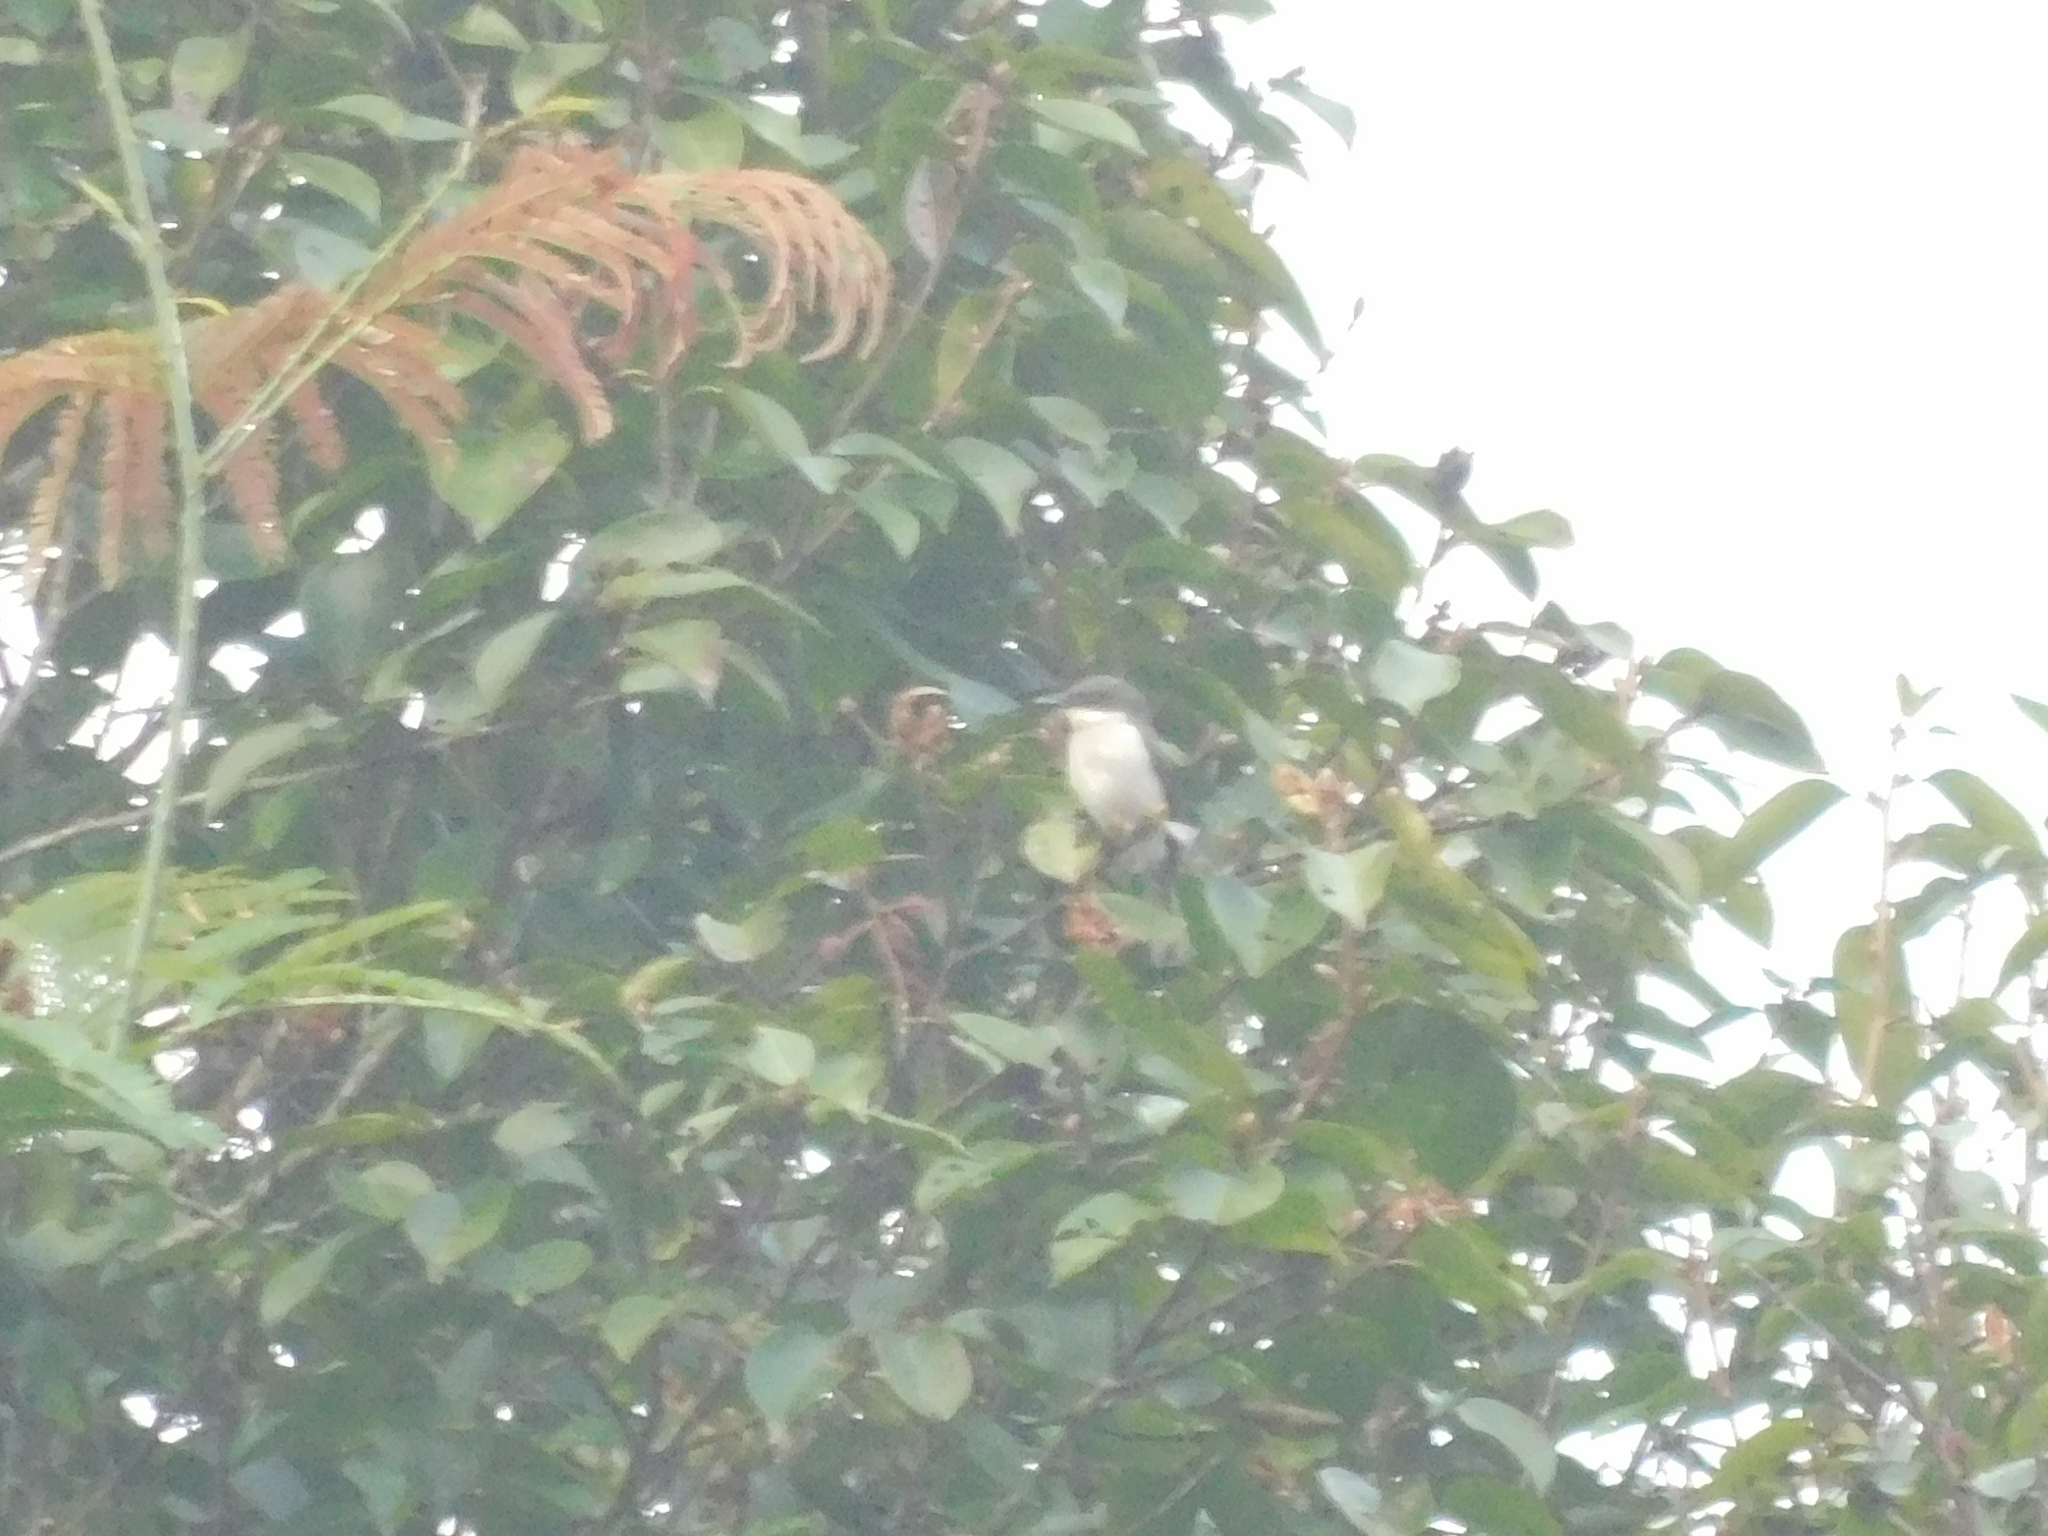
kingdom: Animalia
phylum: Chordata
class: Aves
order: Passeriformes
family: Tephrodornithidae
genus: Hemipus
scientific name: Hemipus hirundinaceus
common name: Black-winged flycatcher-shrike
